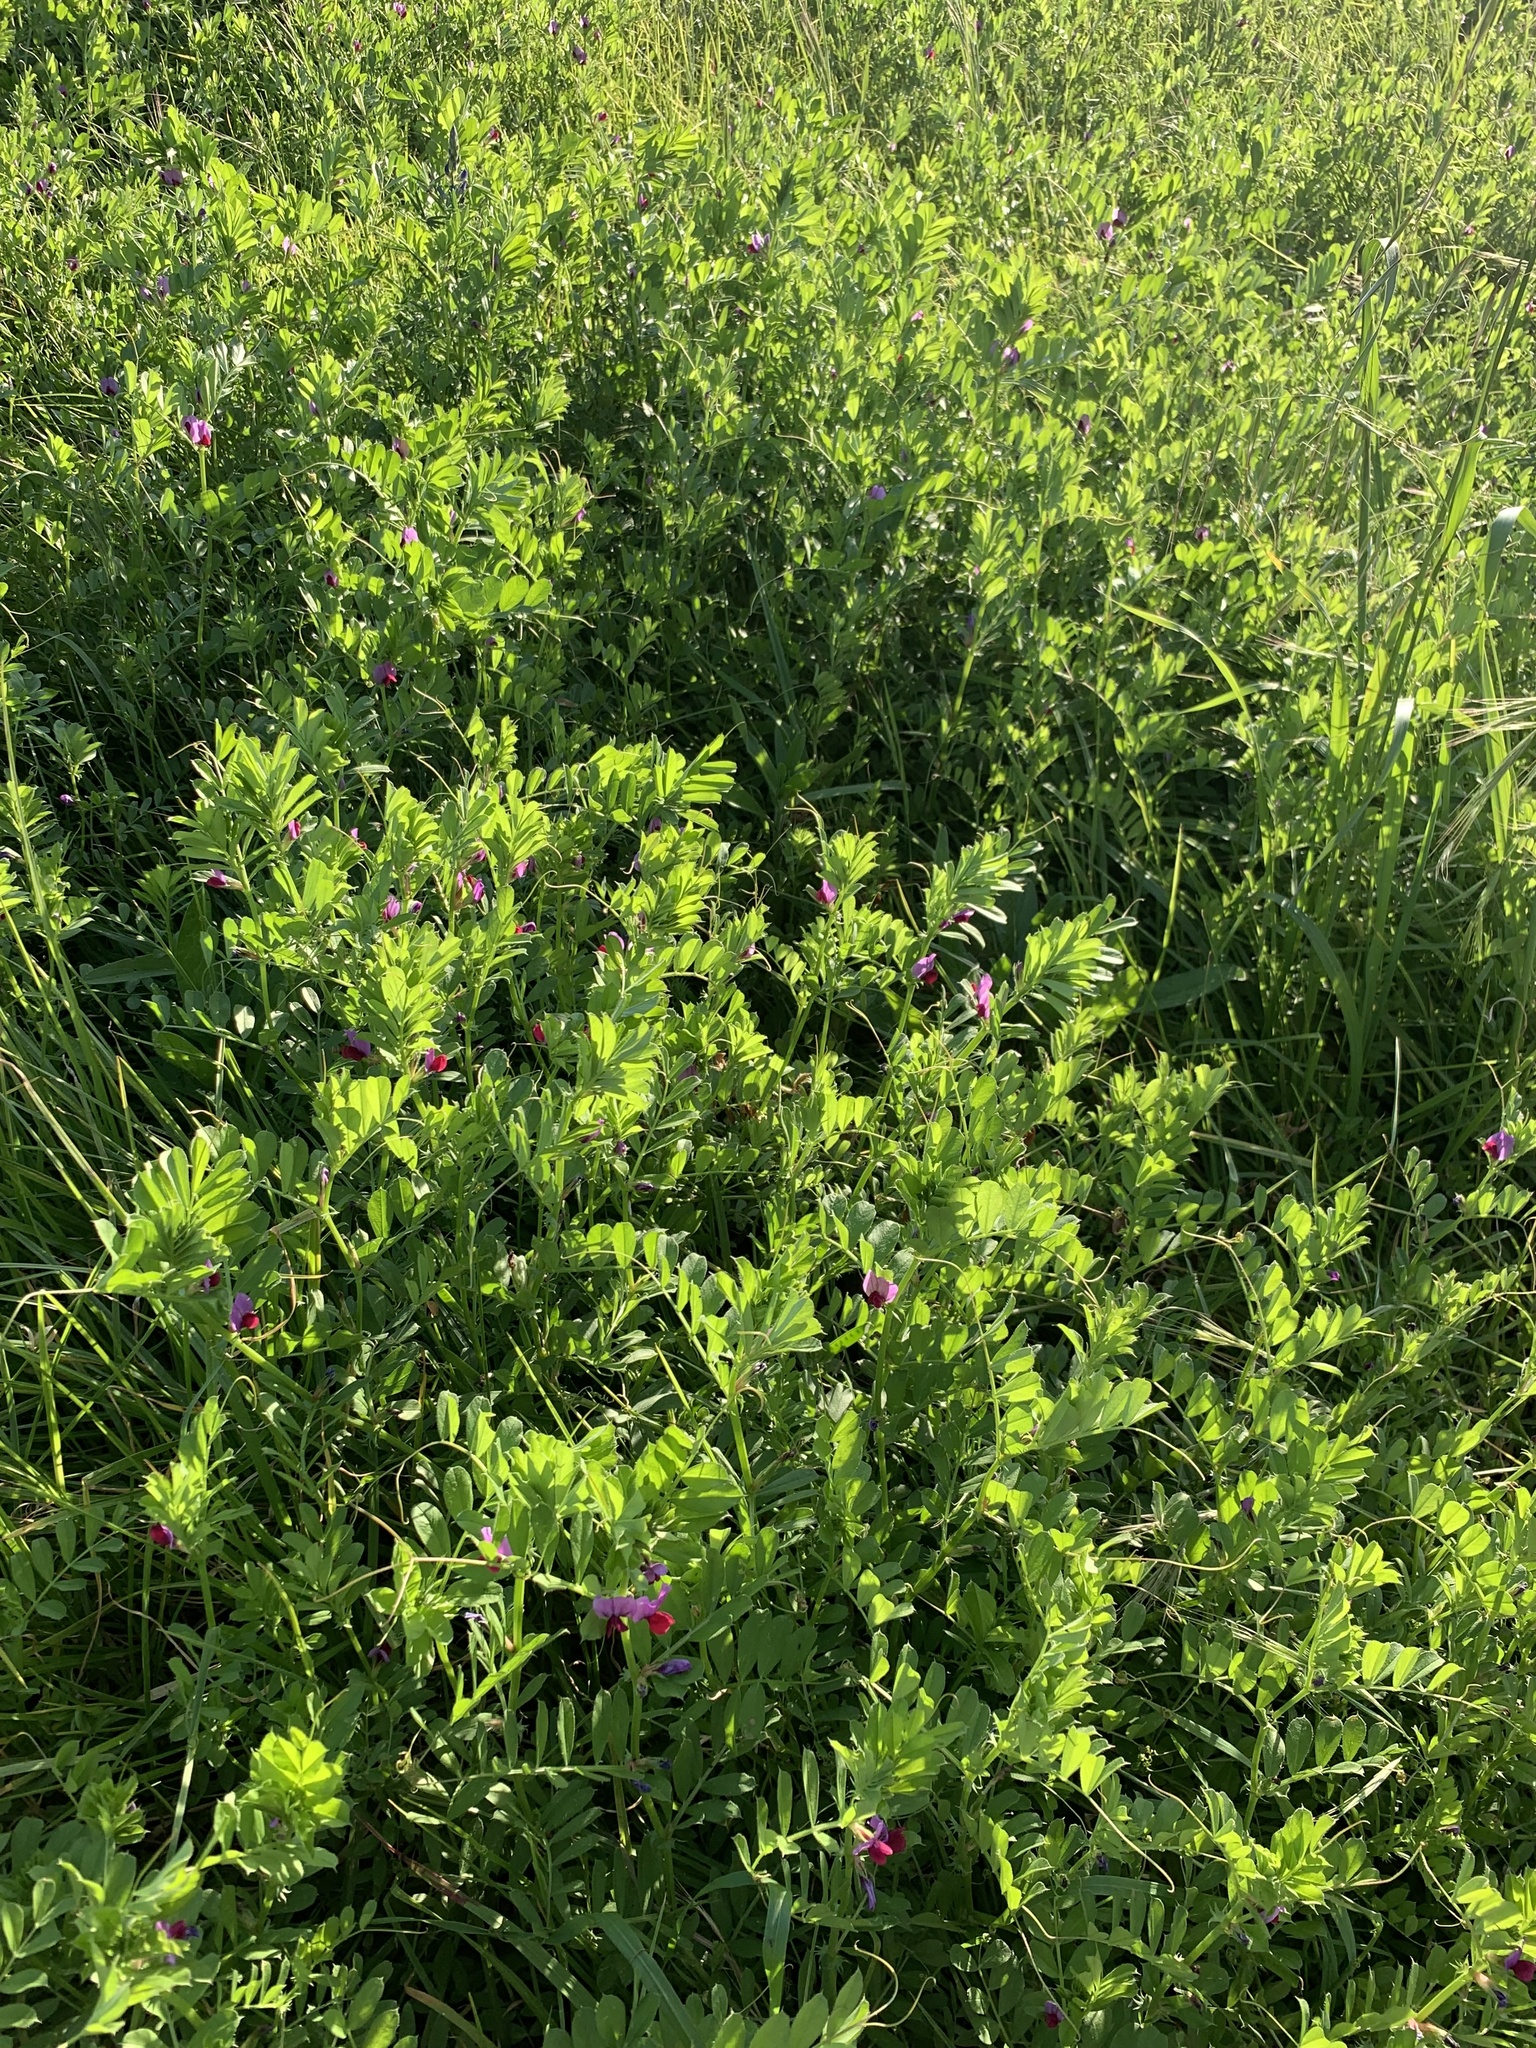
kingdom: Plantae
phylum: Tracheophyta
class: Magnoliopsida
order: Fabales
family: Fabaceae
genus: Vicia
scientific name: Vicia sativa
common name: Garden vetch
